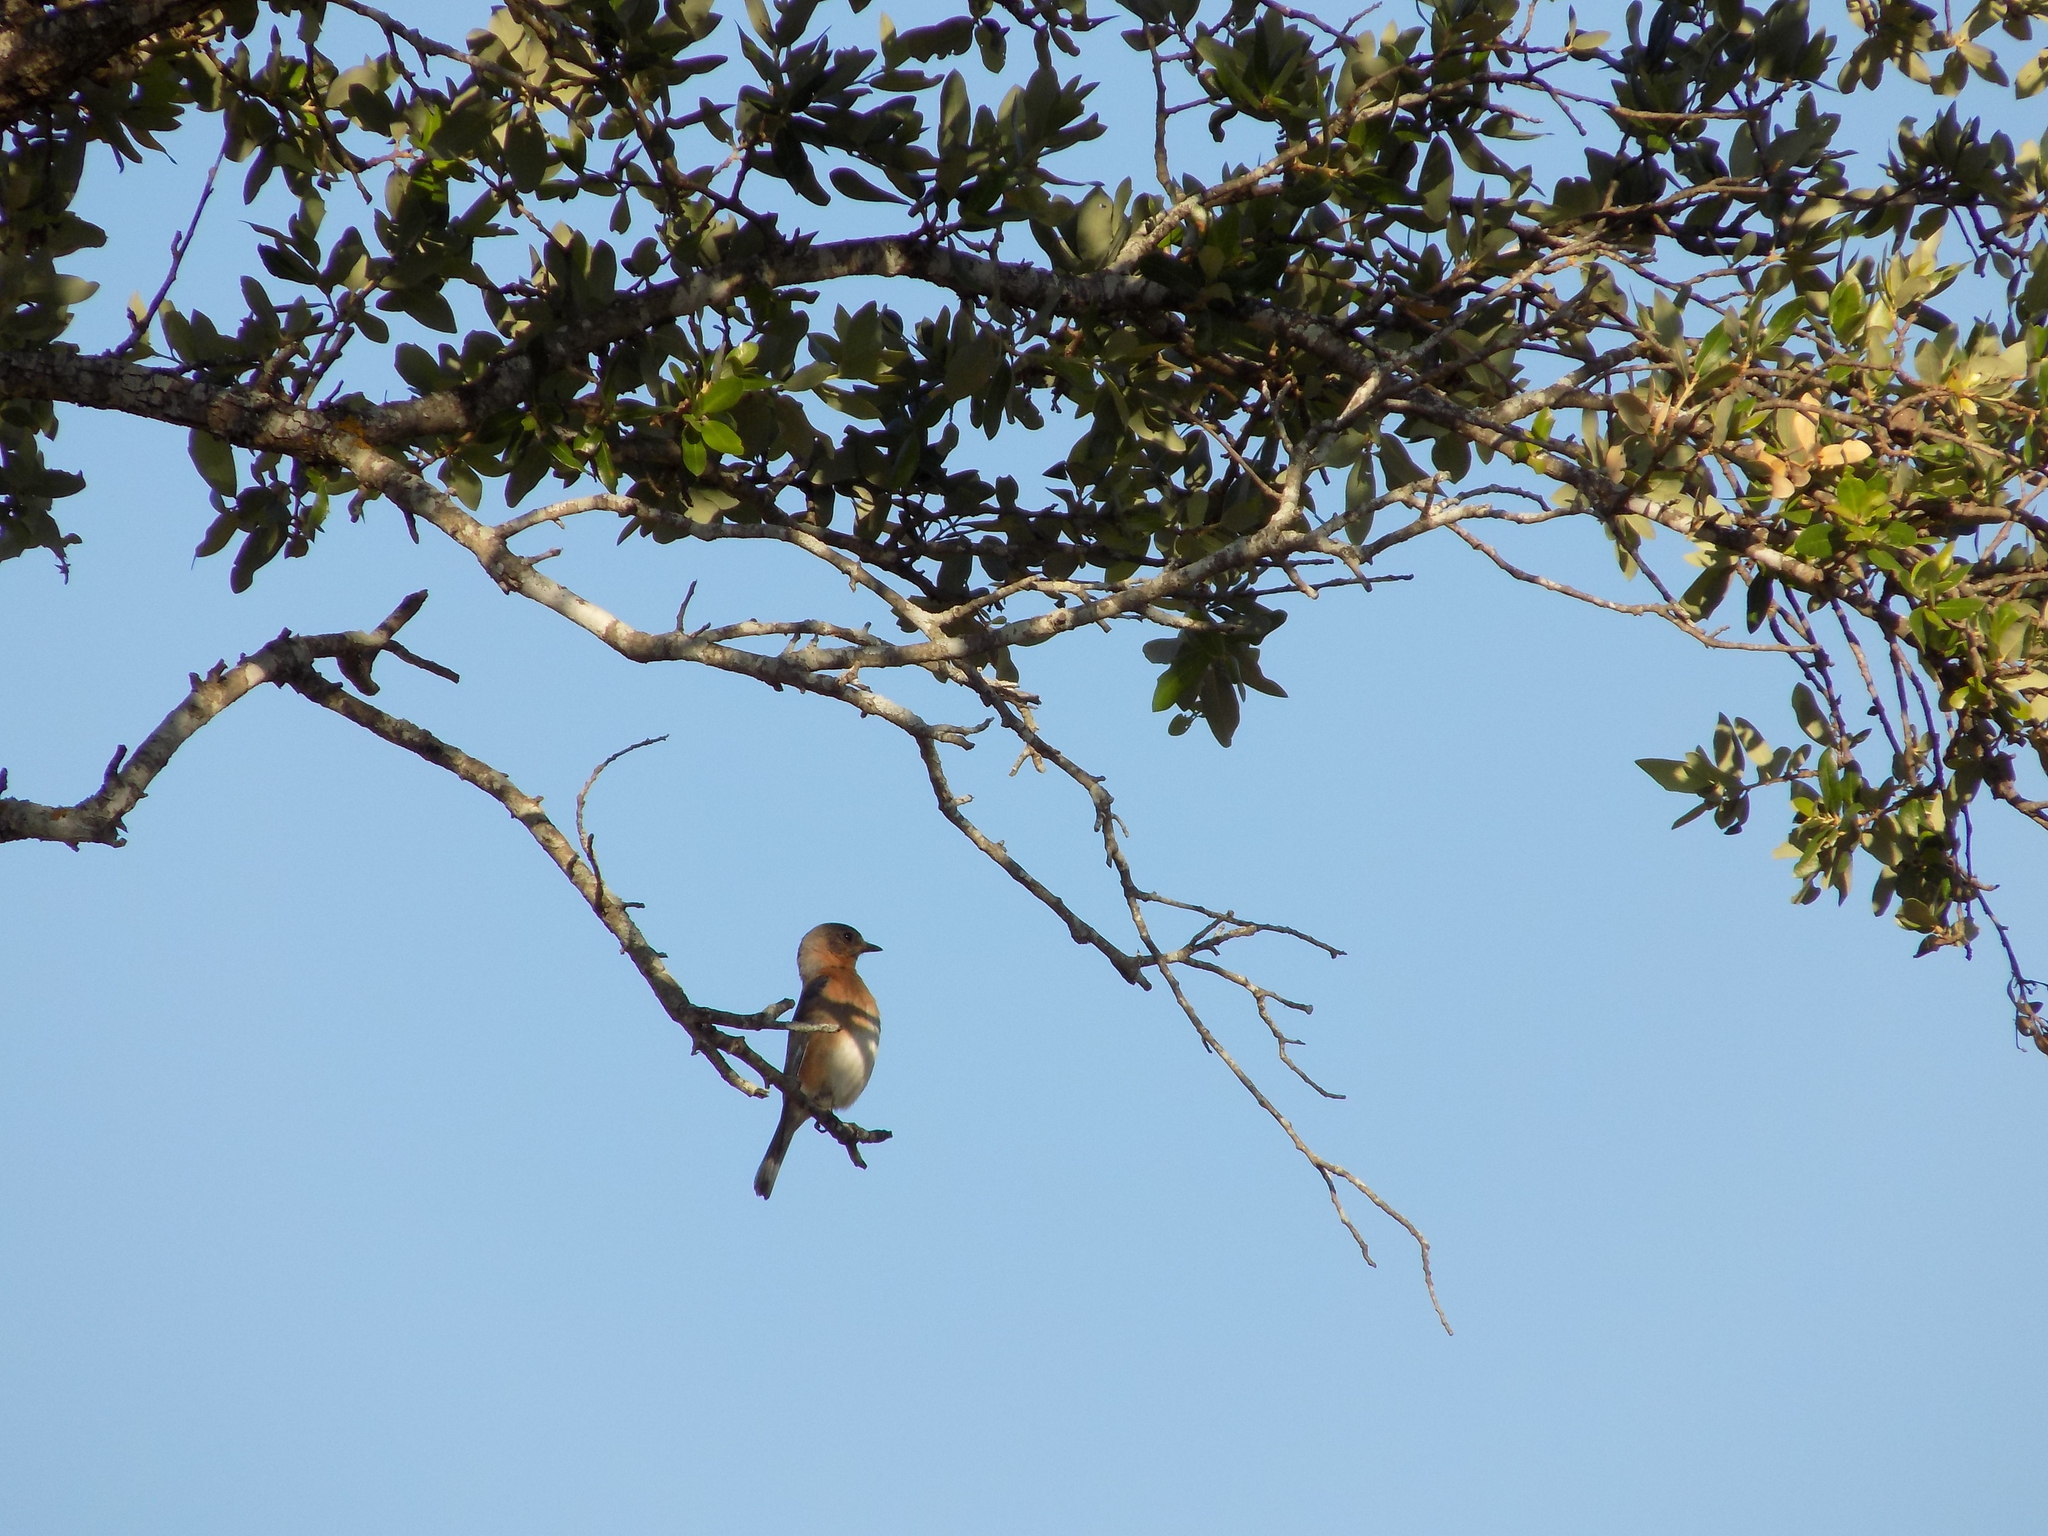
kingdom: Animalia
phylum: Chordata
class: Aves
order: Passeriformes
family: Turdidae
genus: Sialia
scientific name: Sialia sialis
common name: Eastern bluebird
